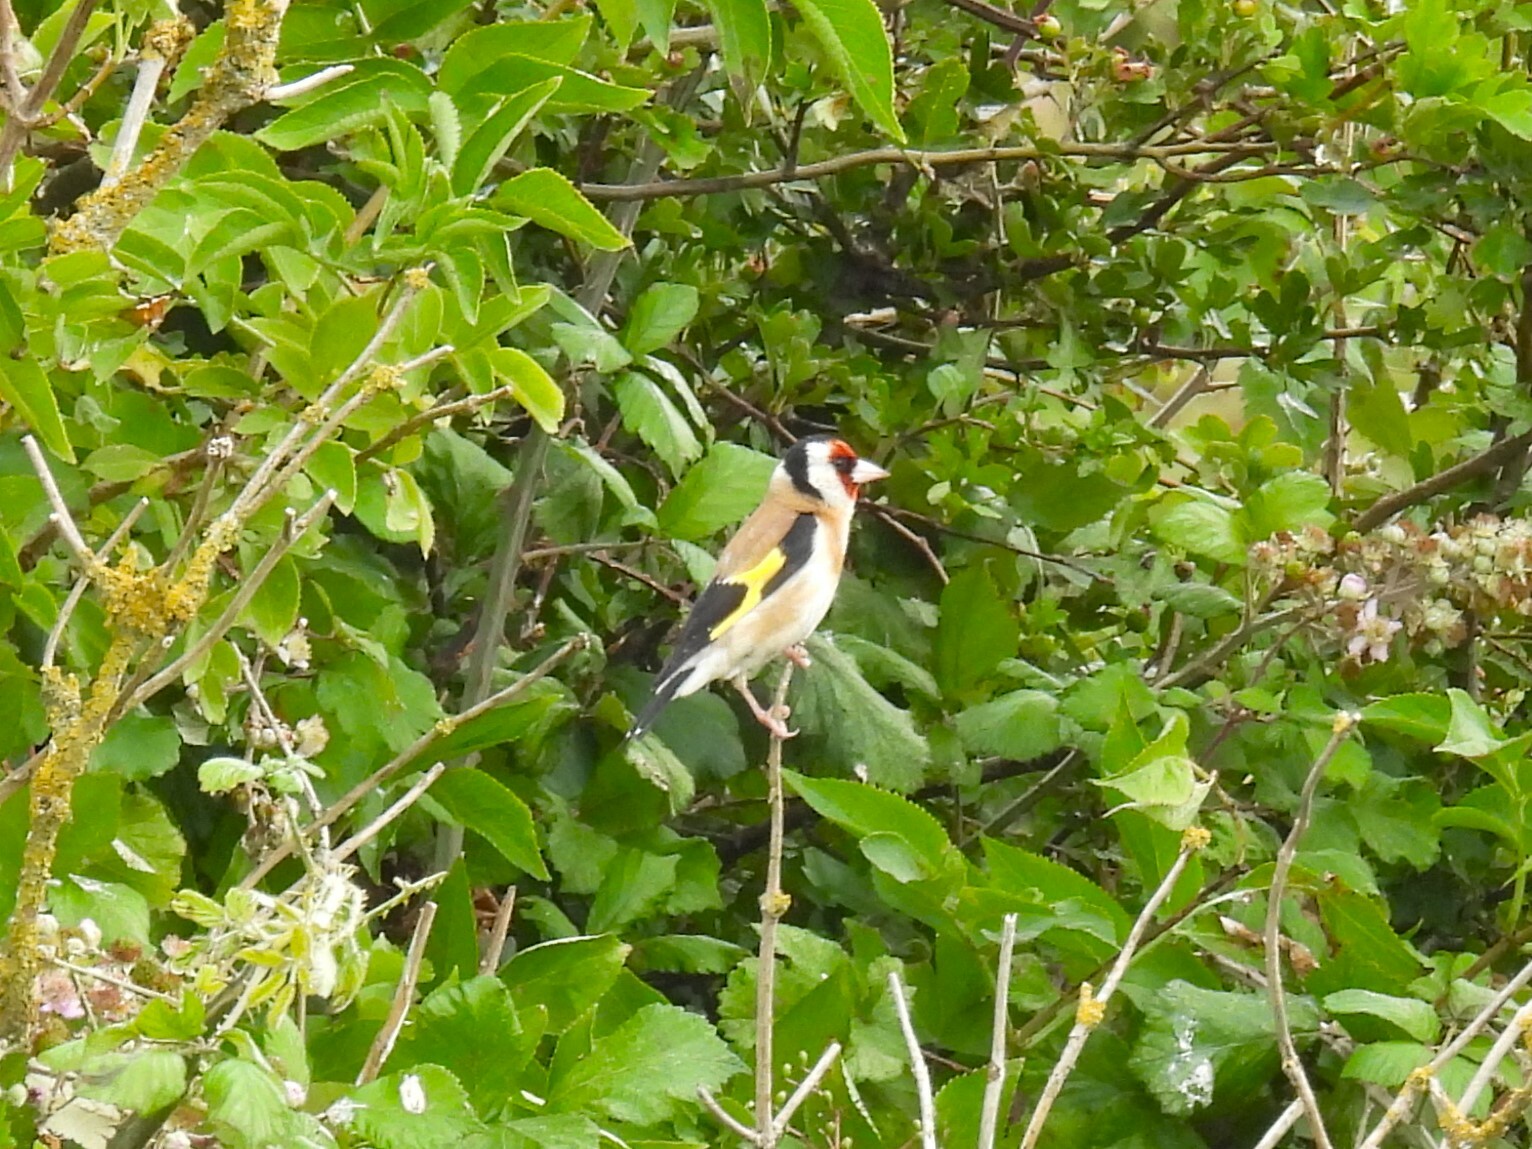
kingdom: Animalia
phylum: Chordata
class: Aves
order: Passeriformes
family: Fringillidae
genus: Carduelis
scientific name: Carduelis carduelis
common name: European goldfinch
